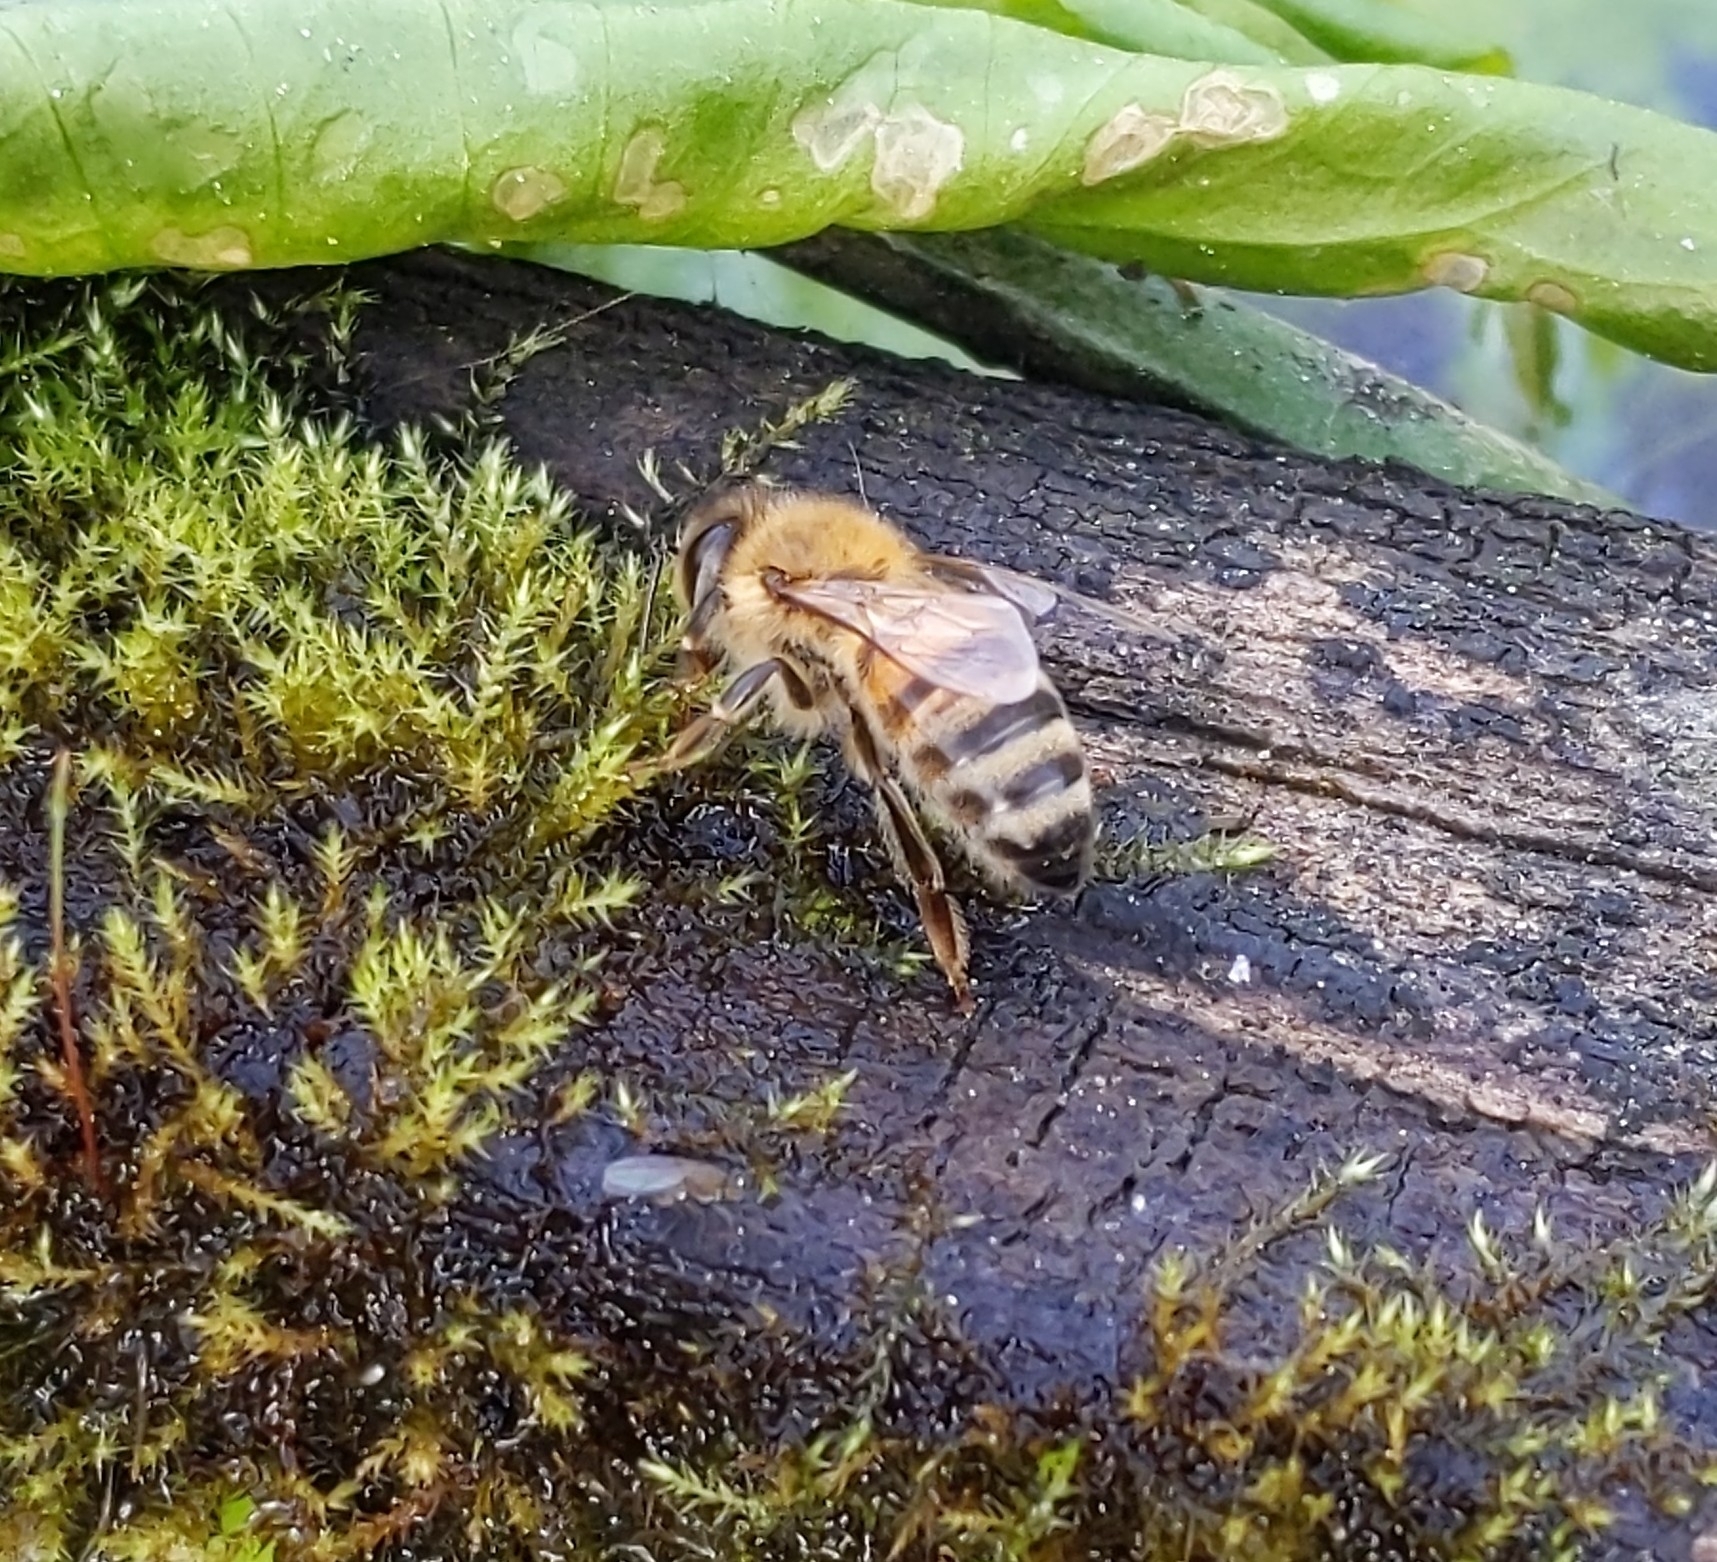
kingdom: Animalia
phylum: Arthropoda
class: Insecta
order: Hymenoptera
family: Apidae
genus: Apis
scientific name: Apis mellifera
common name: Honey bee
